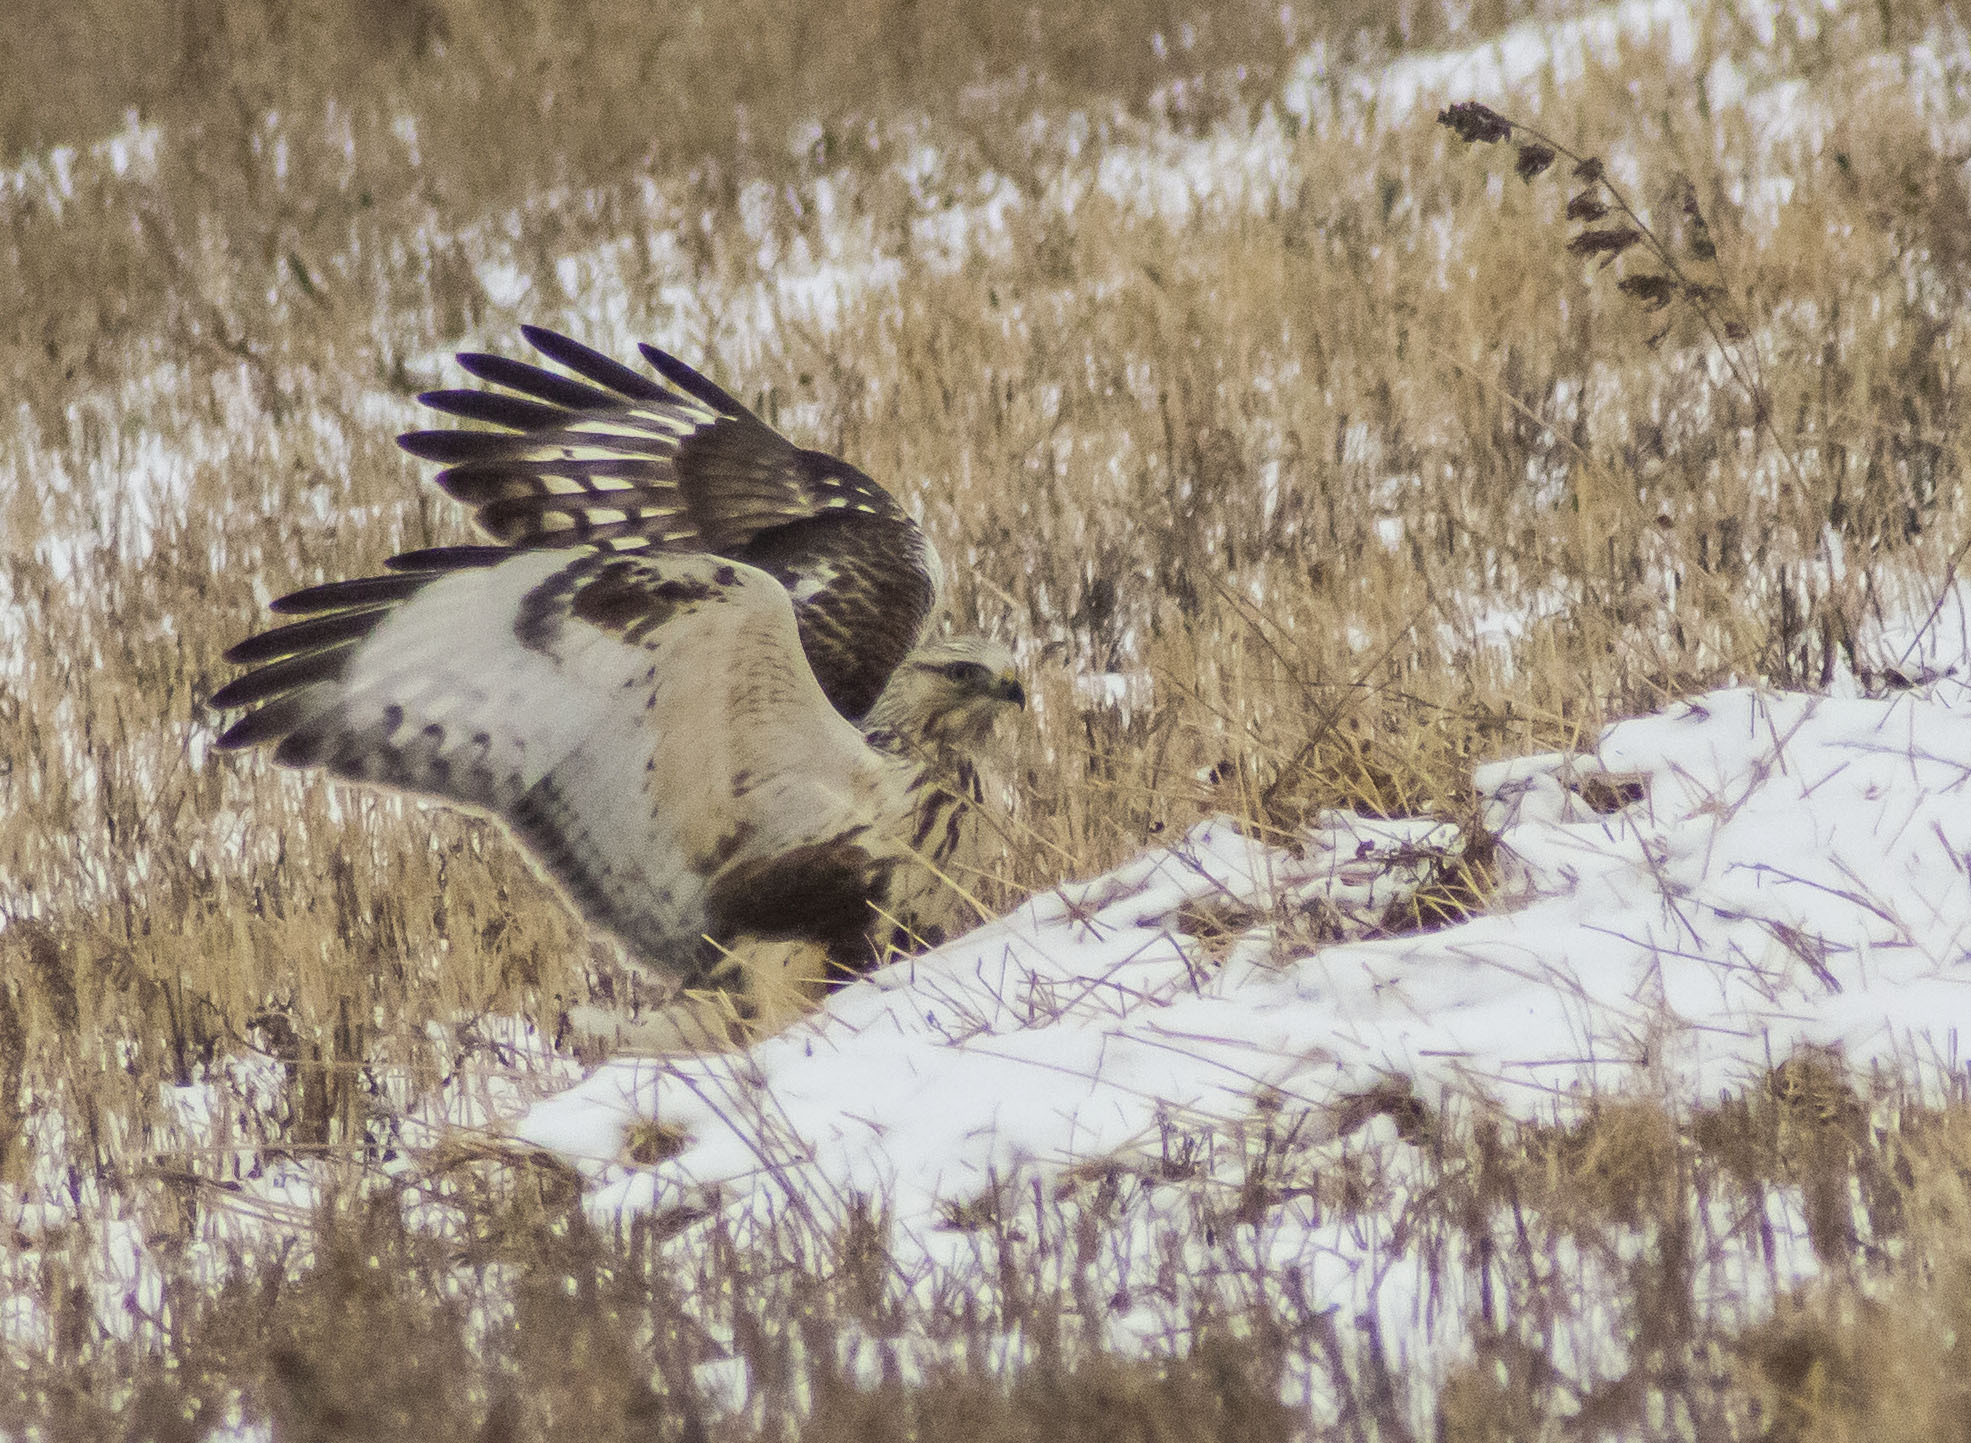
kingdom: Animalia
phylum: Chordata
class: Aves
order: Accipitriformes
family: Accipitridae
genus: Buteo
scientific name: Buteo lagopus
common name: Rough-legged buzzard
